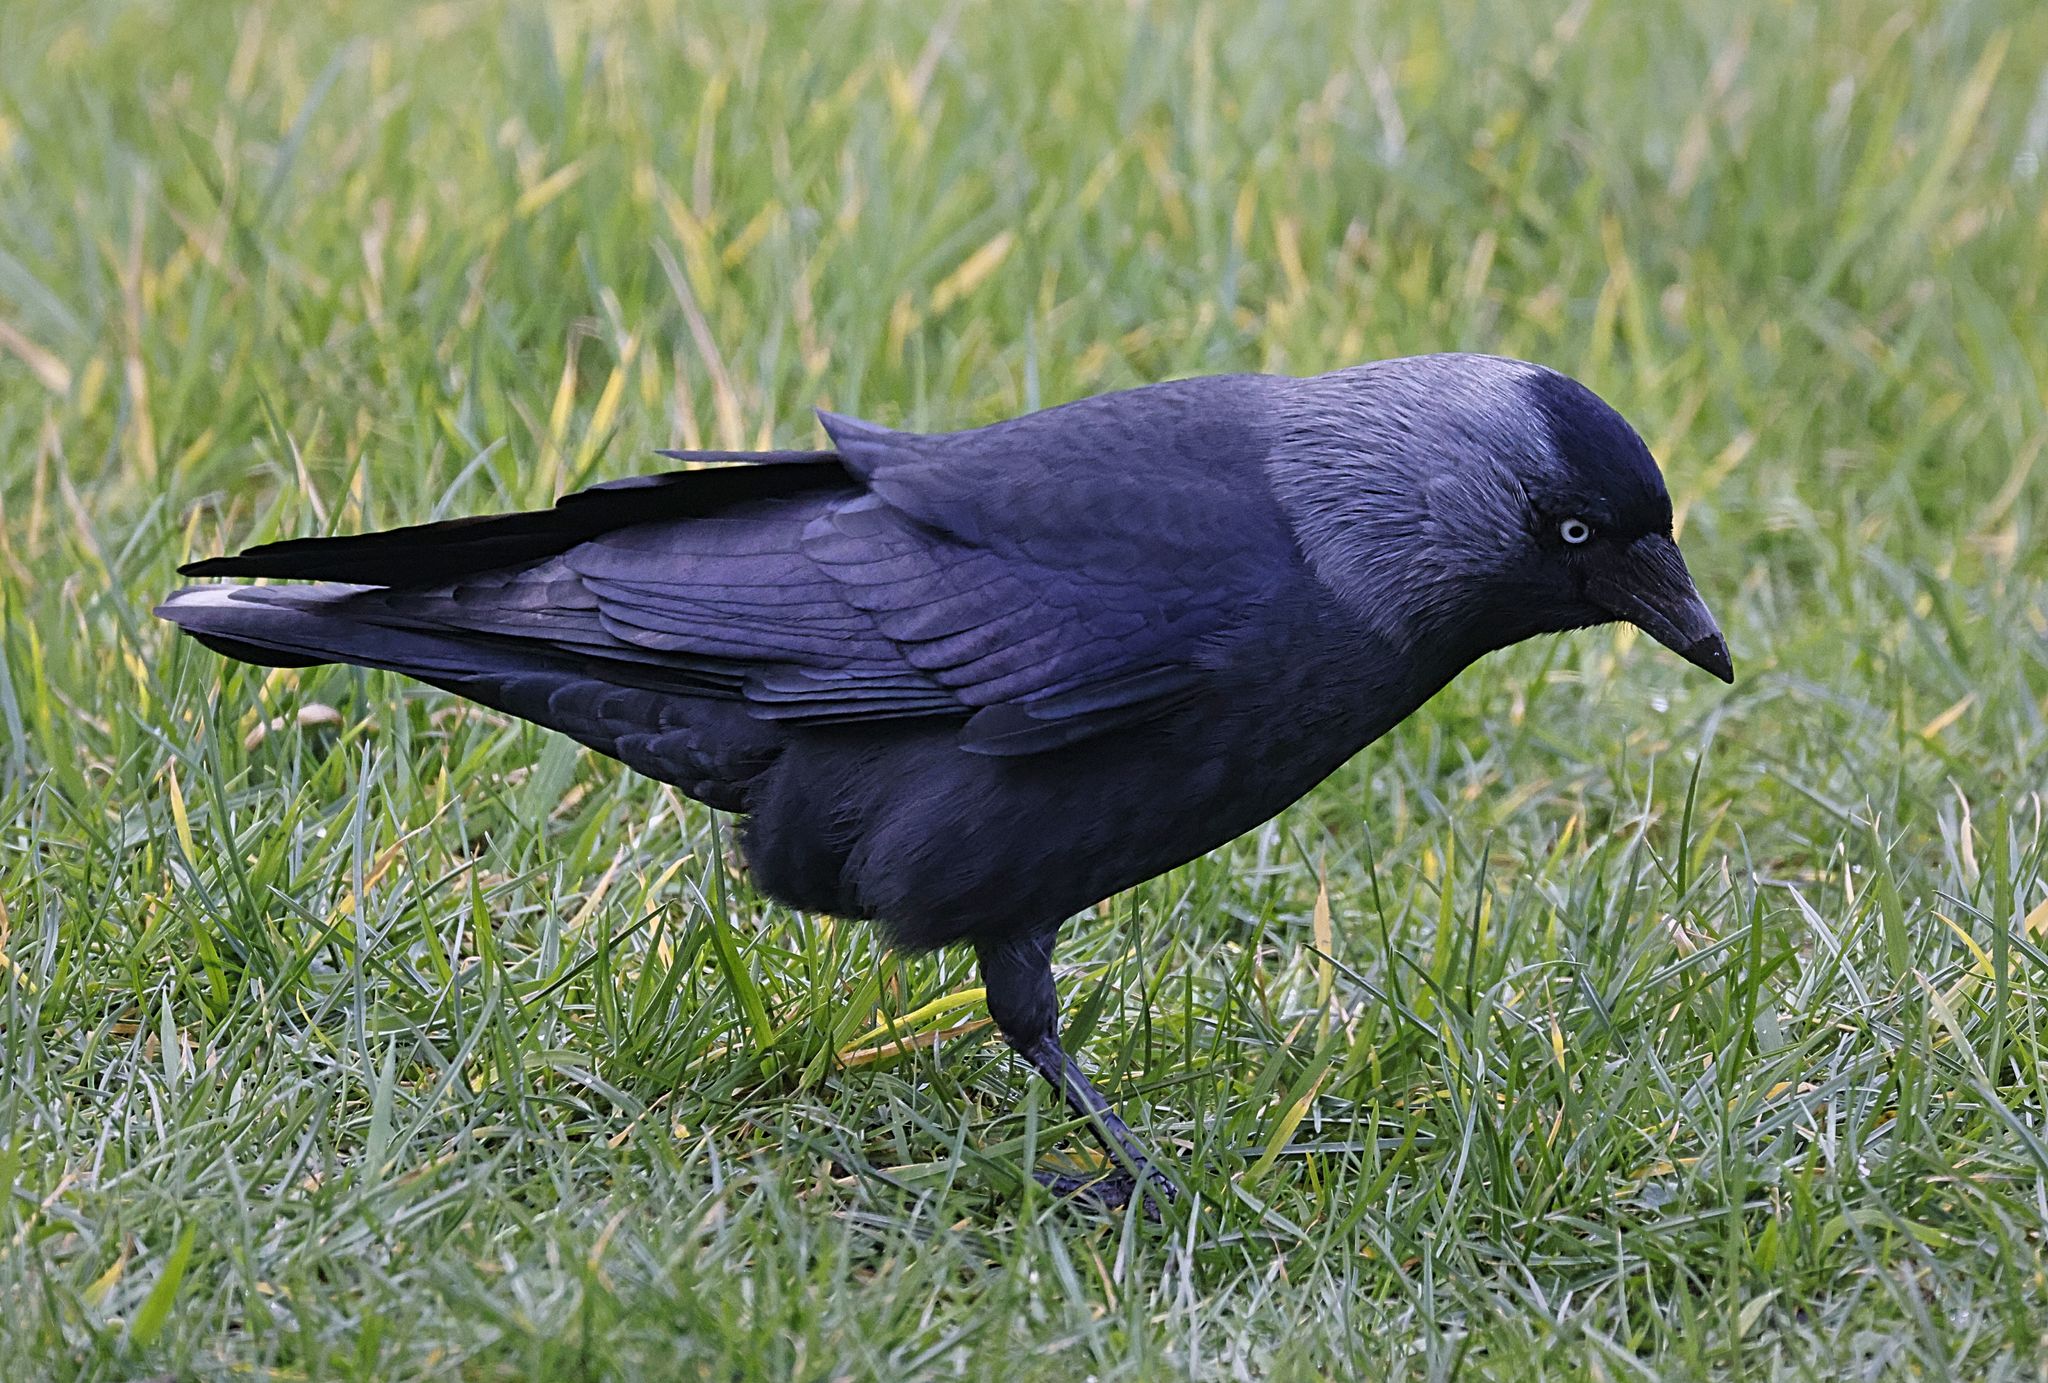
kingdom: Animalia
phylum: Chordata
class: Aves
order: Passeriformes
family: Corvidae
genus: Coloeus
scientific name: Coloeus monedula
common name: Western jackdaw
